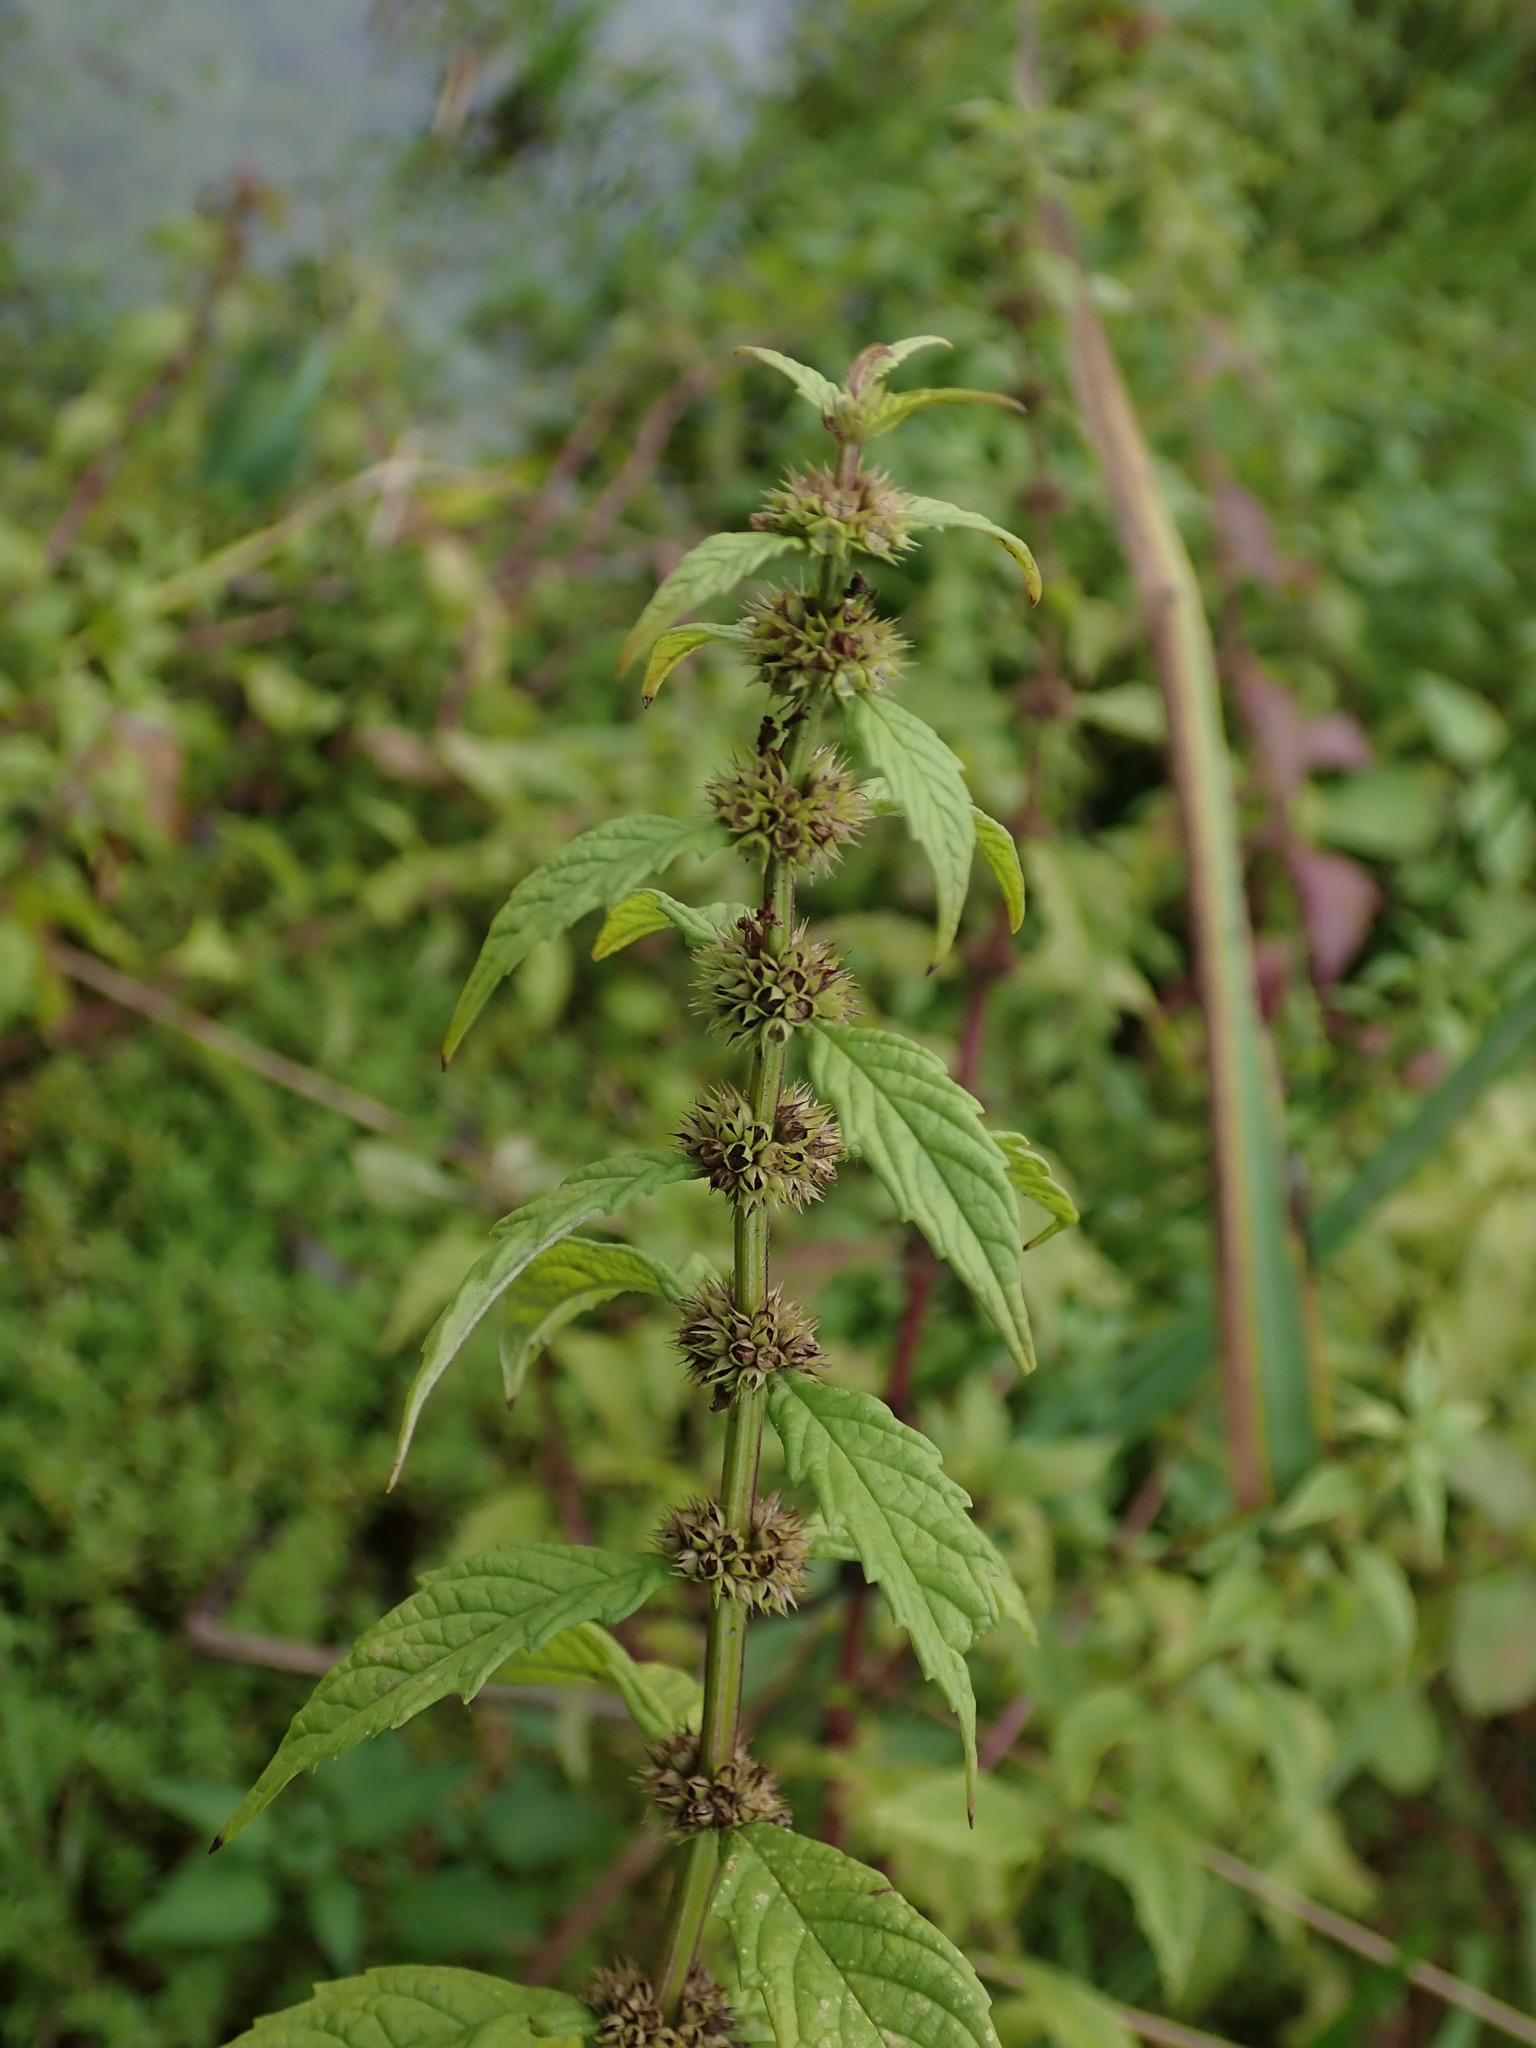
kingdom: Plantae
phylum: Tracheophyta
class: Magnoliopsida
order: Lamiales
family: Lamiaceae
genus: Lycopus
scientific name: Lycopus europaeus
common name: European bugleweed
